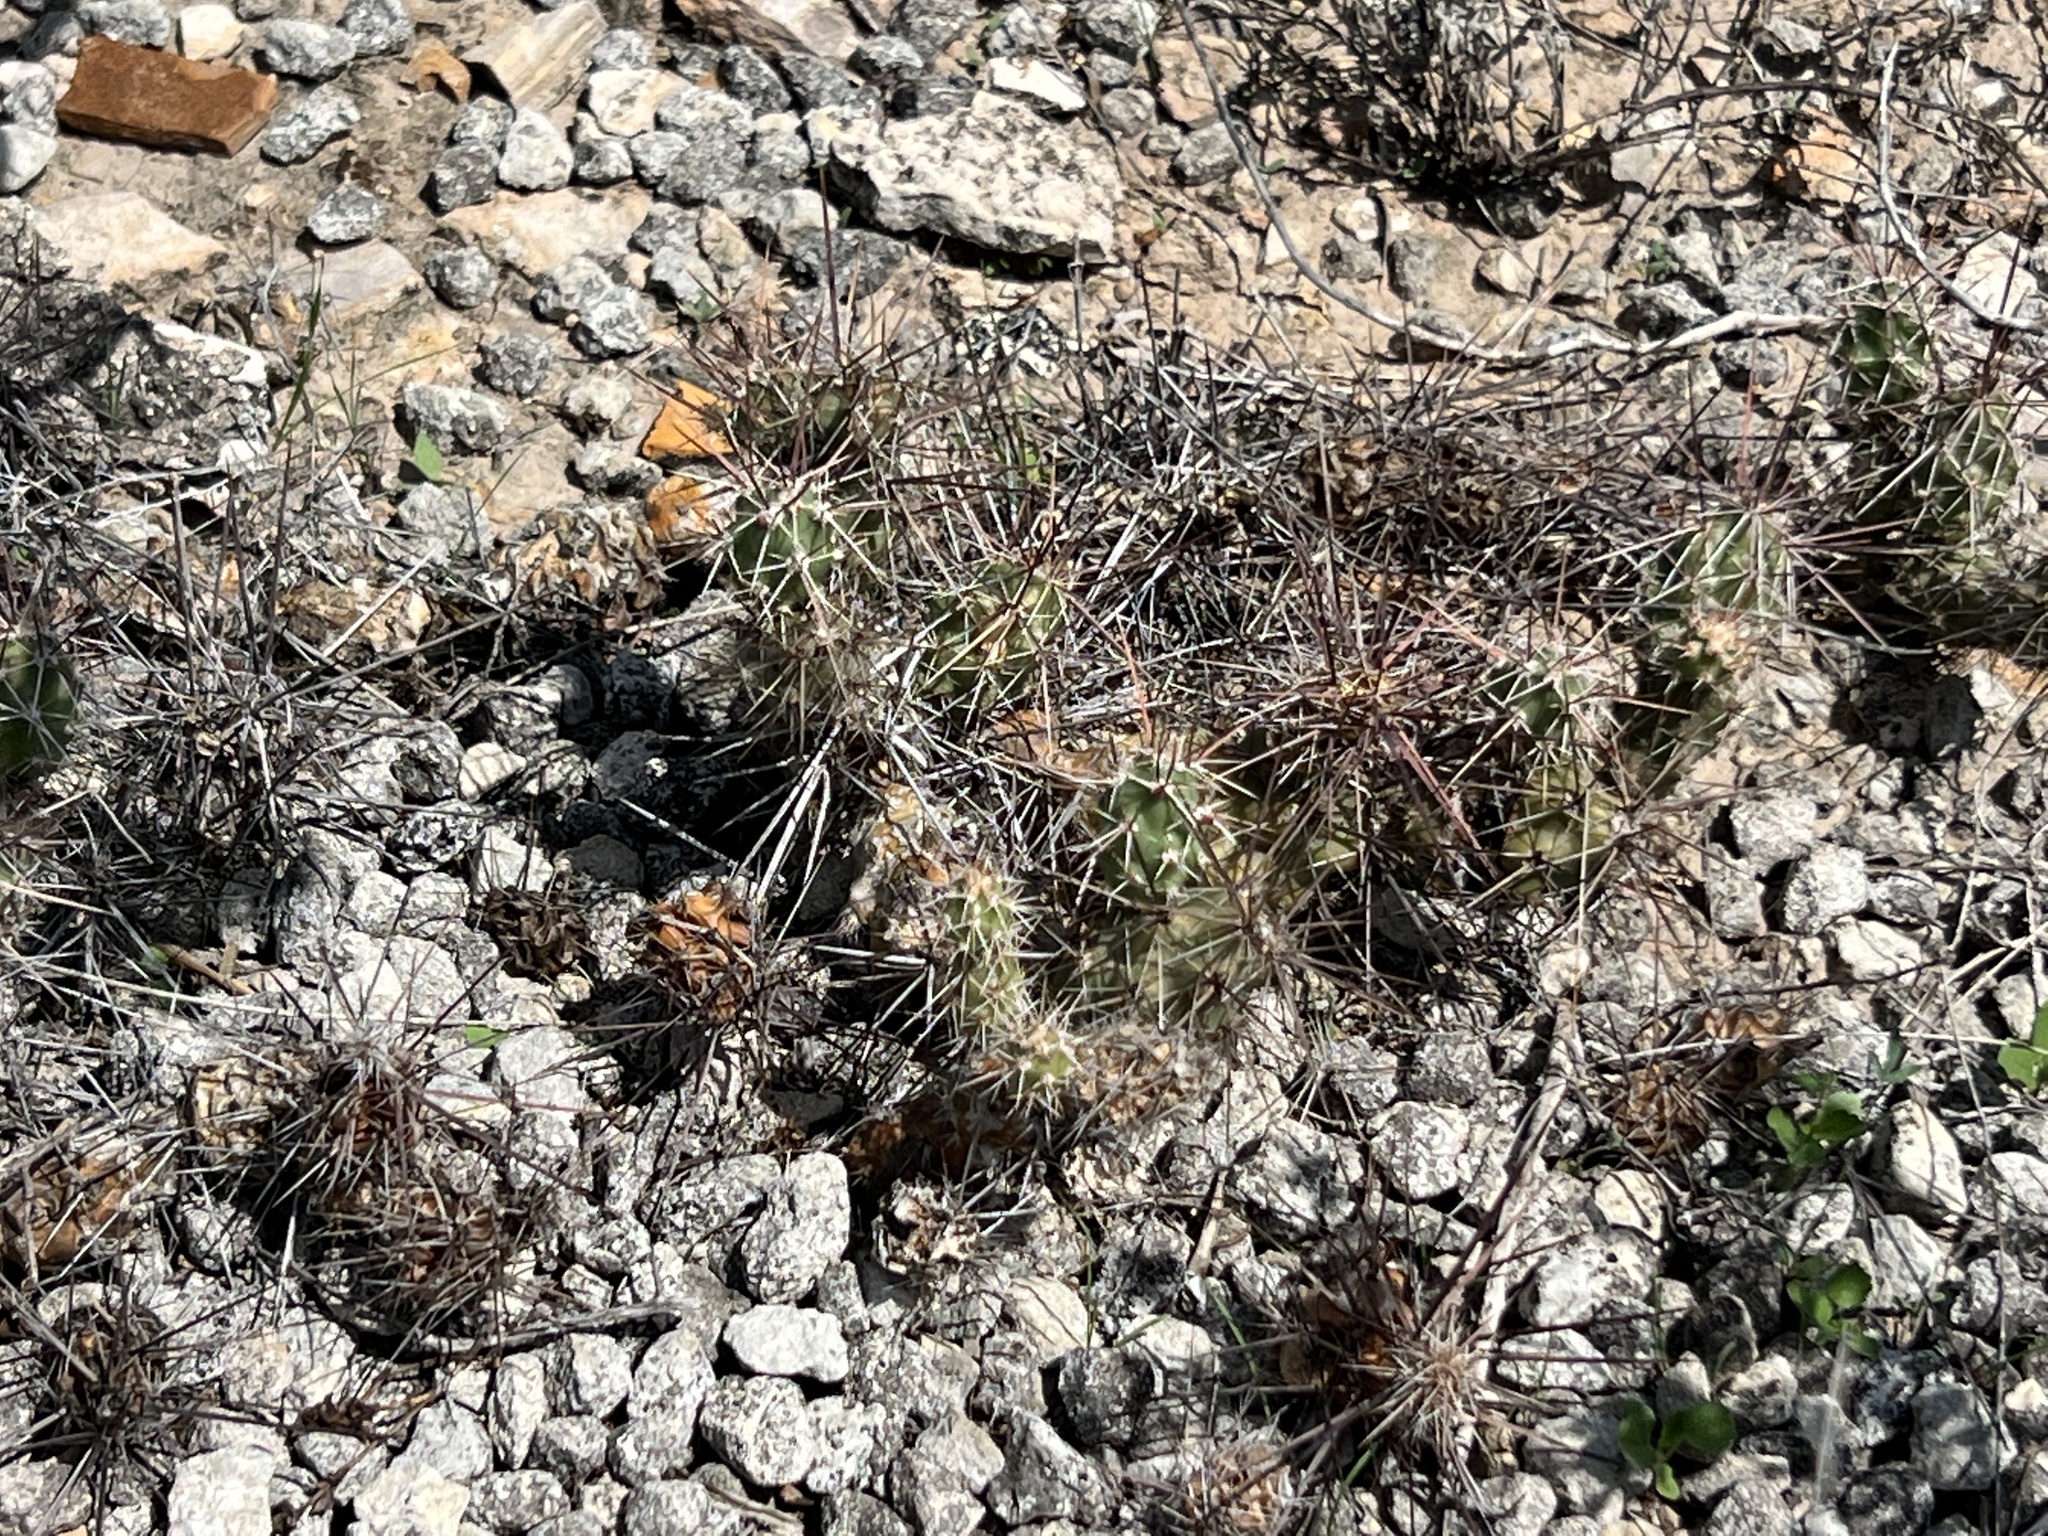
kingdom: Plantae
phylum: Tracheophyta
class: Magnoliopsida
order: Caryophyllales
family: Cactaceae
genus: Grusonia
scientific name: Grusonia schottii
